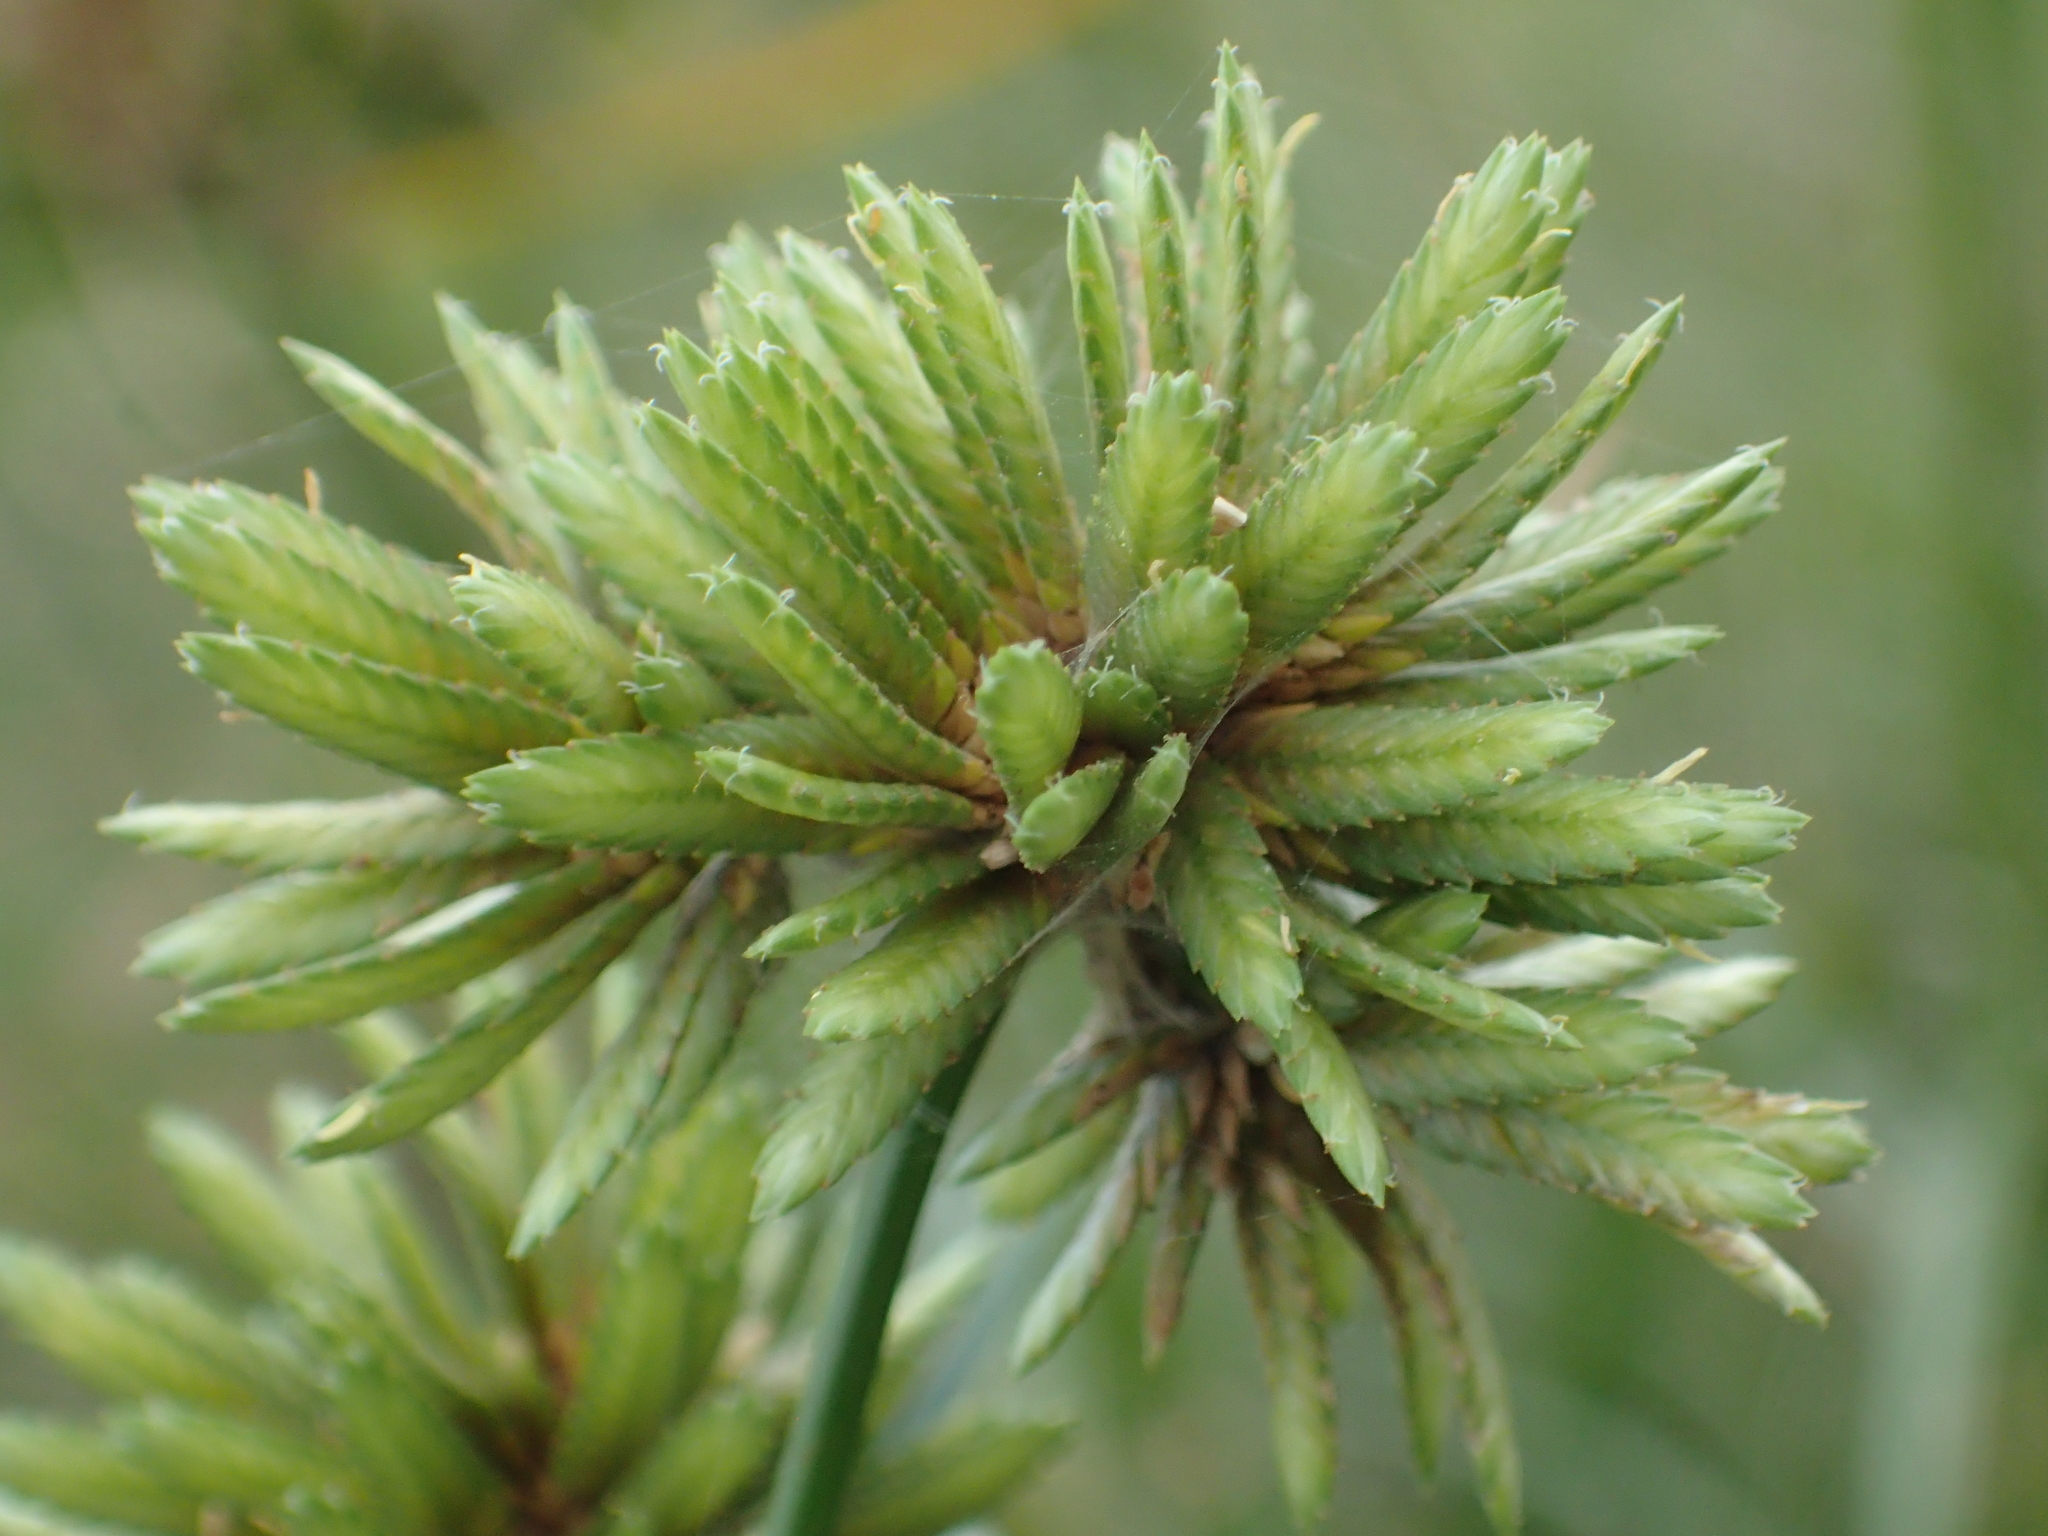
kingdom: Plantae
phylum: Tracheophyta
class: Liliopsida
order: Poales
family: Cyperaceae
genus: Cyperus
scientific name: Cyperus eragrostis
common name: Tall flatsedge
